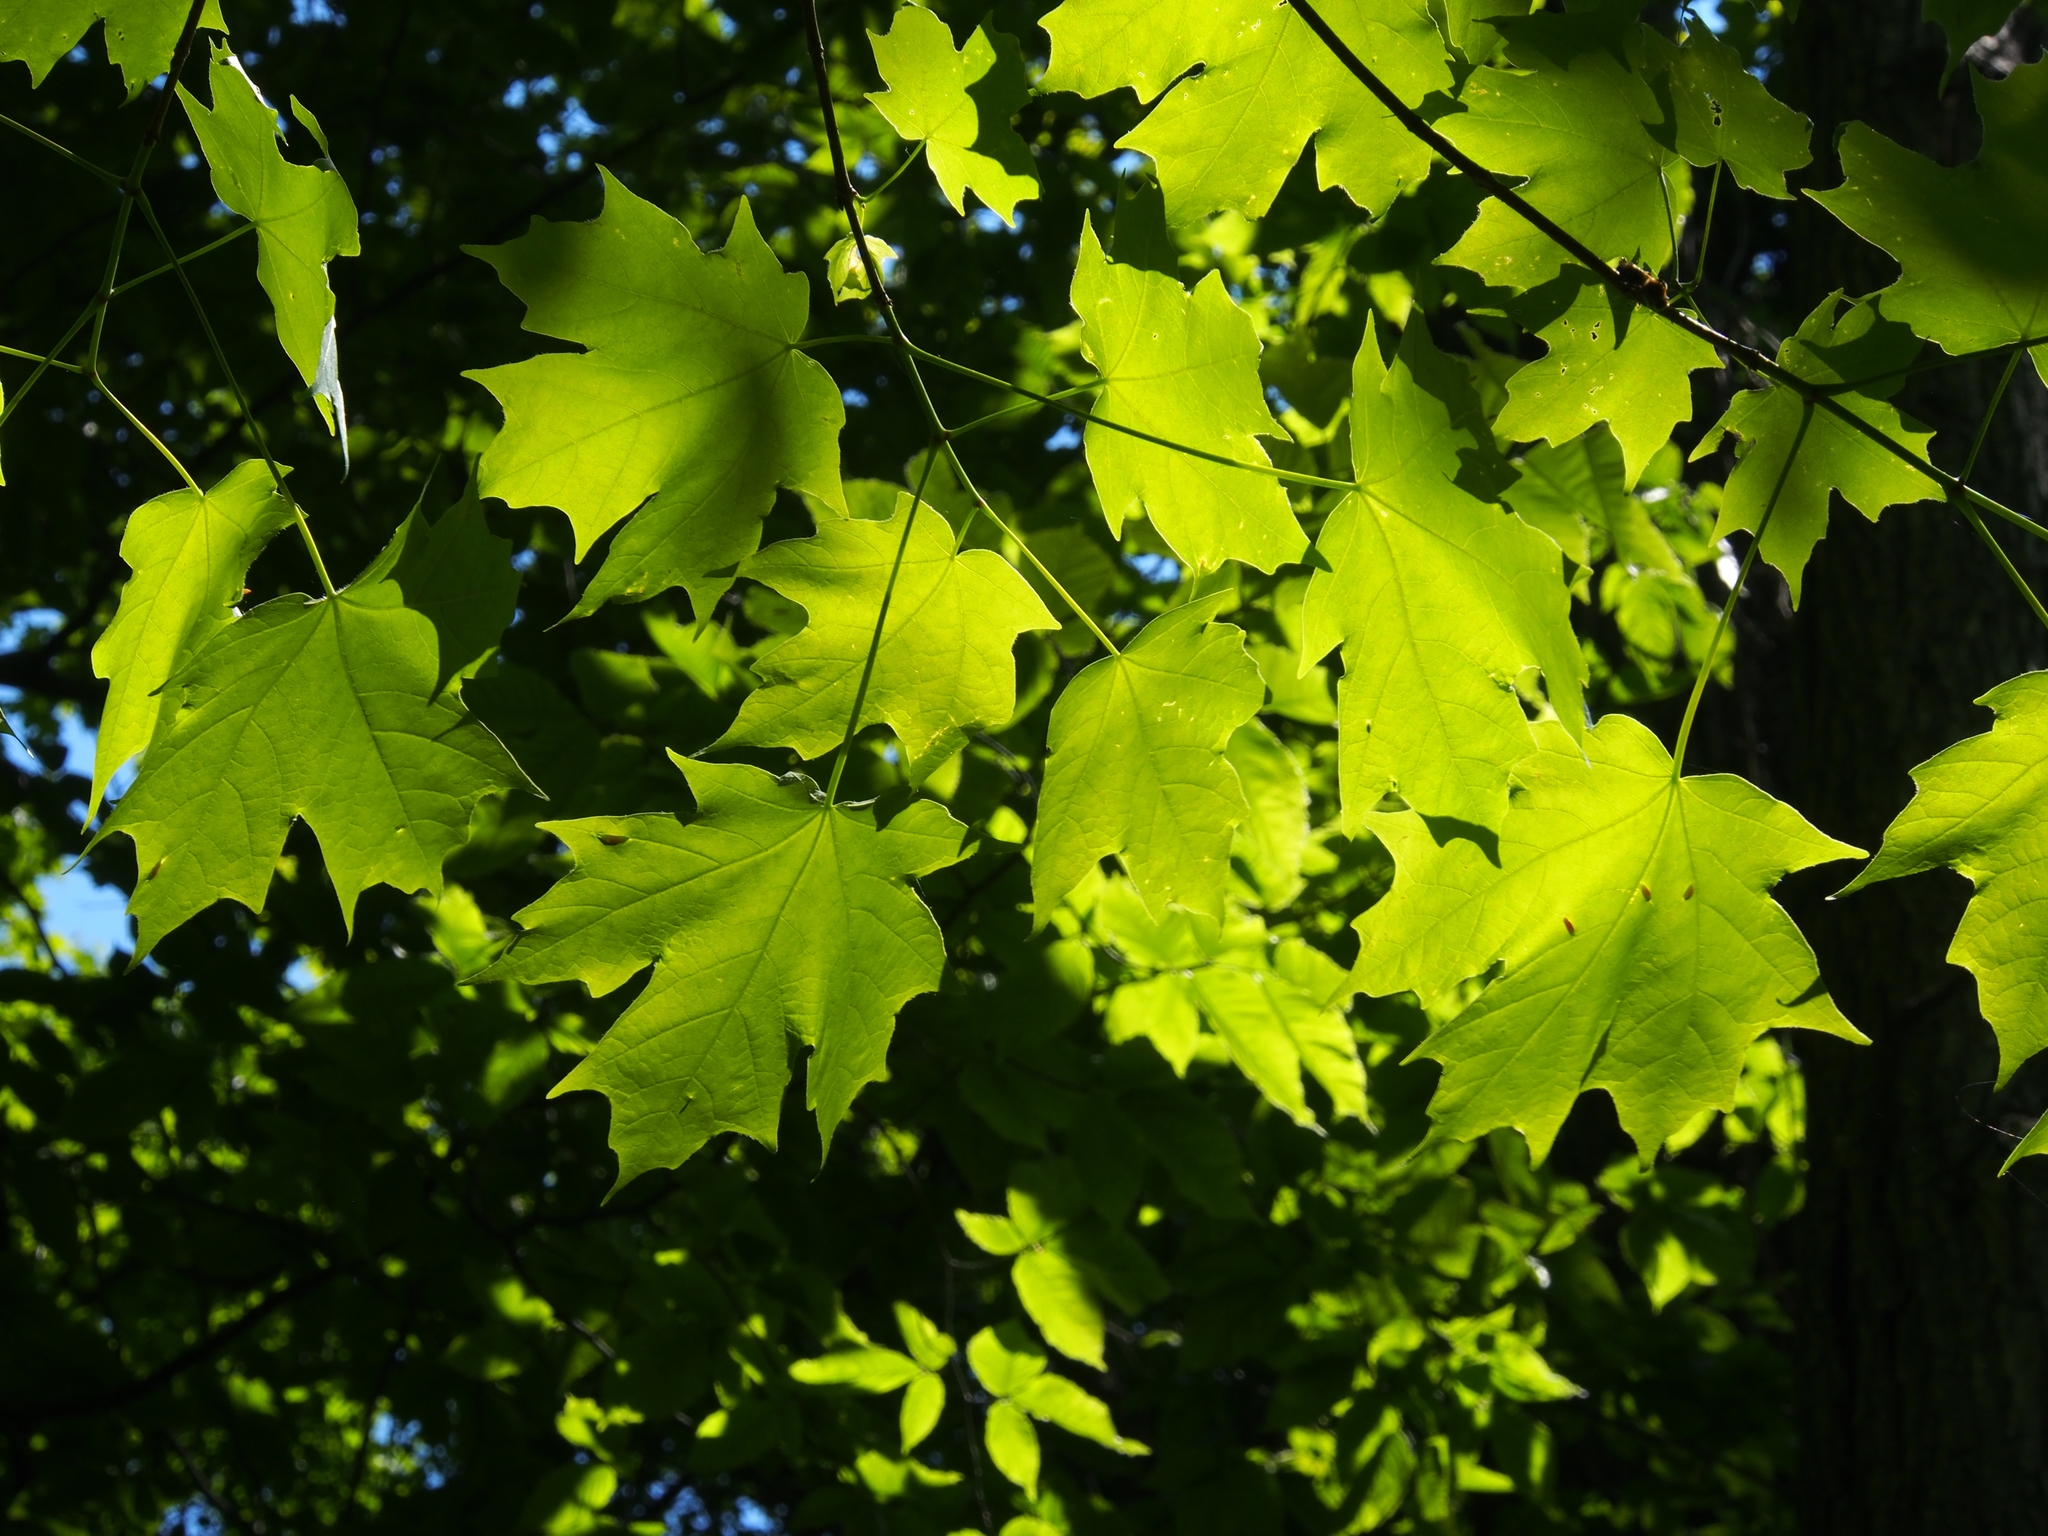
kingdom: Plantae
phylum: Tracheophyta
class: Magnoliopsida
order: Sapindales
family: Sapindaceae
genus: Acer
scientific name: Acer platanoides
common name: Norway maple
